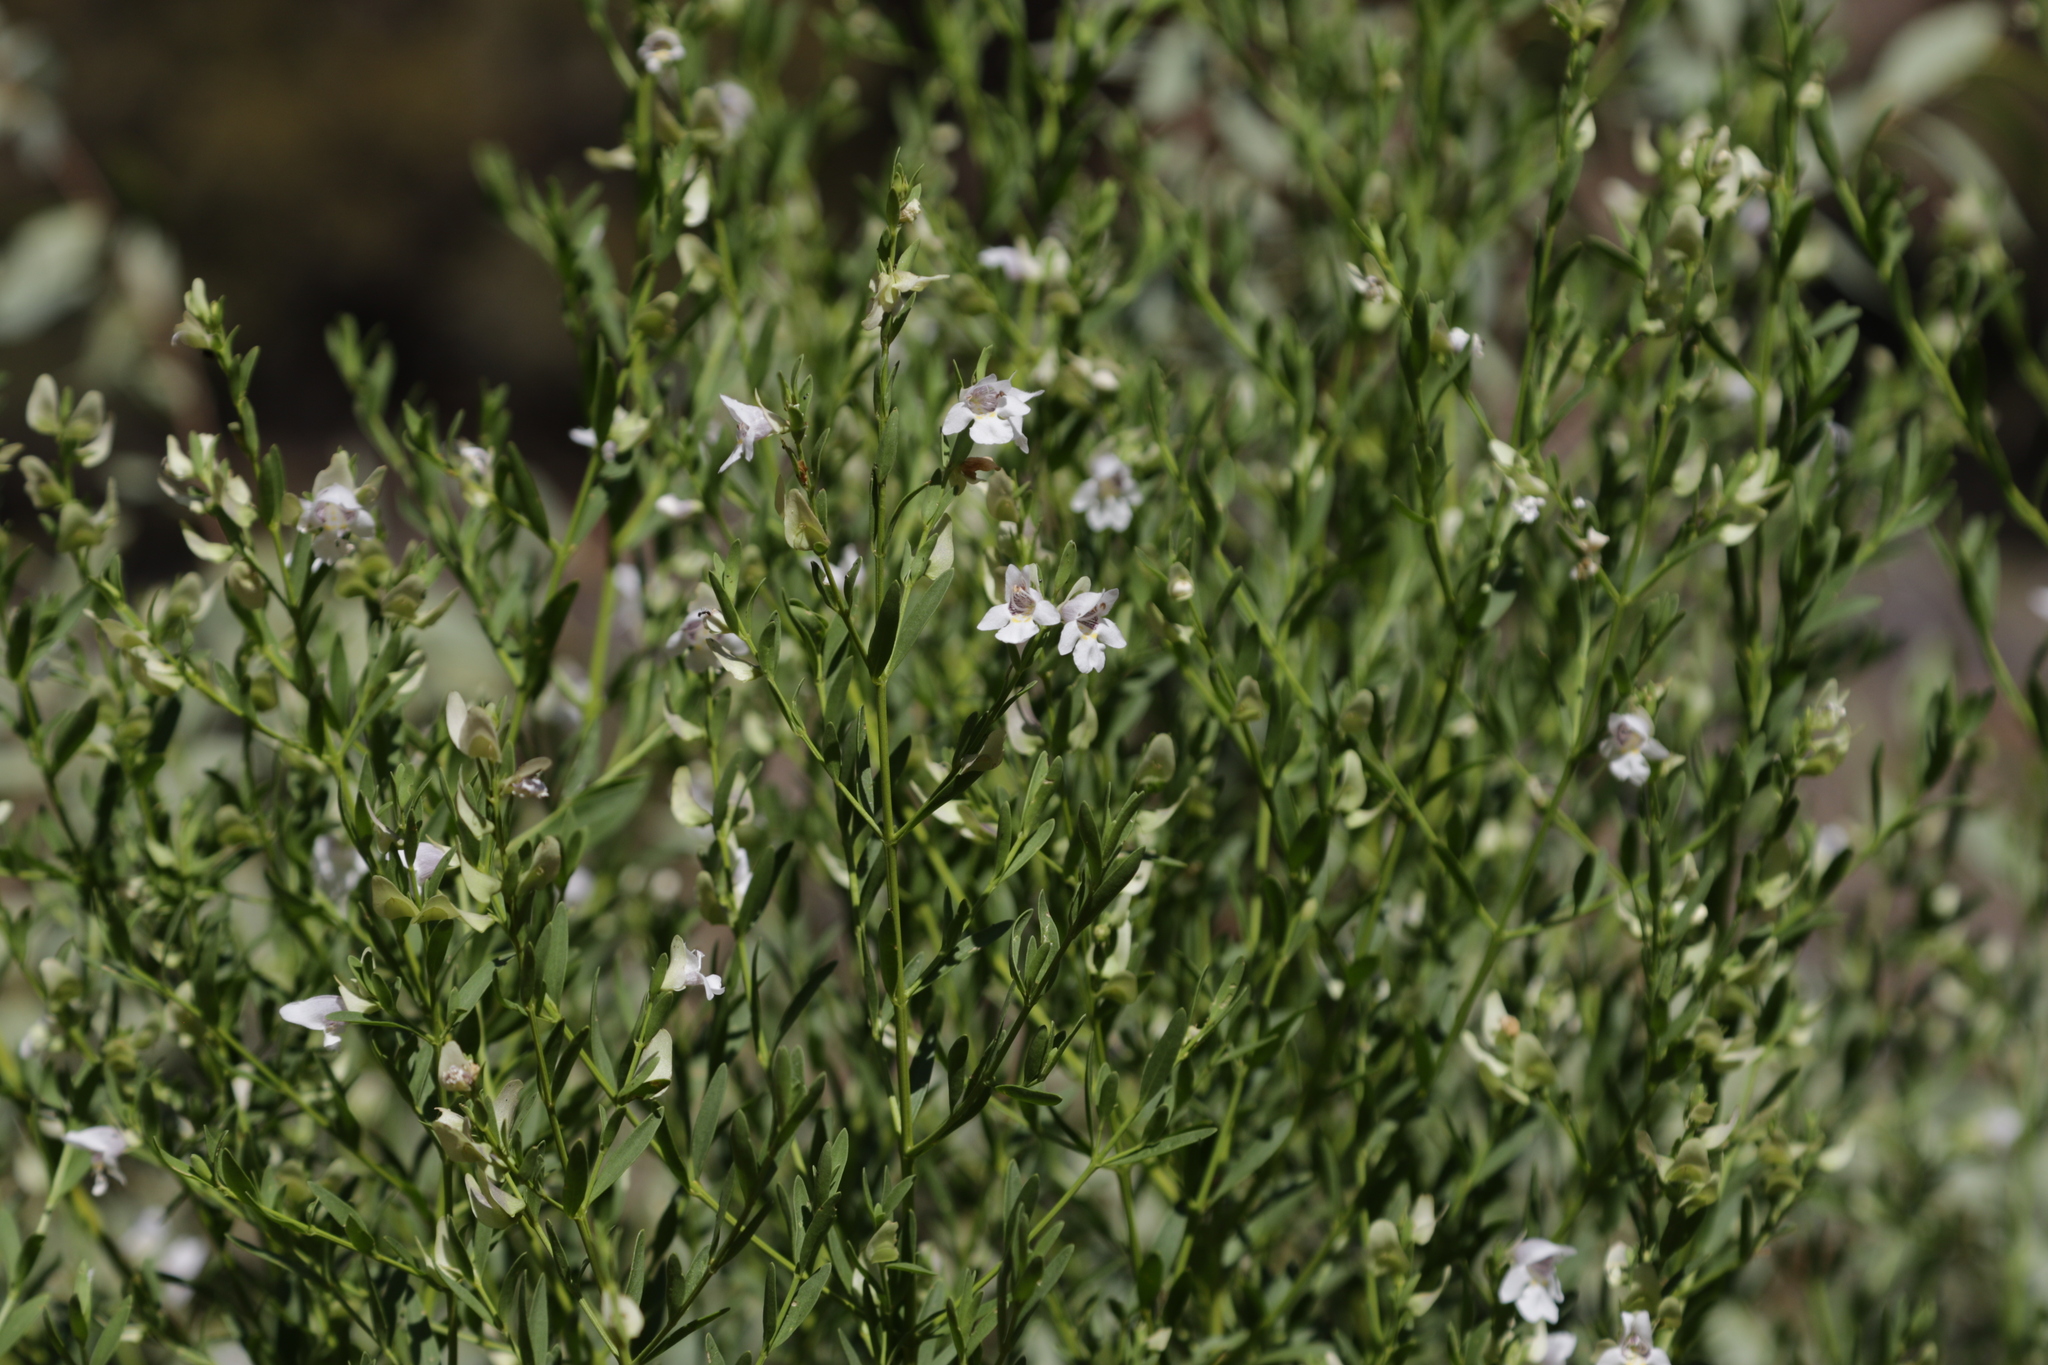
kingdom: Plantae
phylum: Tracheophyta
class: Magnoliopsida
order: Lamiales
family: Lamiaceae
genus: Prostanthera
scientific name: Prostanthera striatiflora
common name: Jockey's-cap
